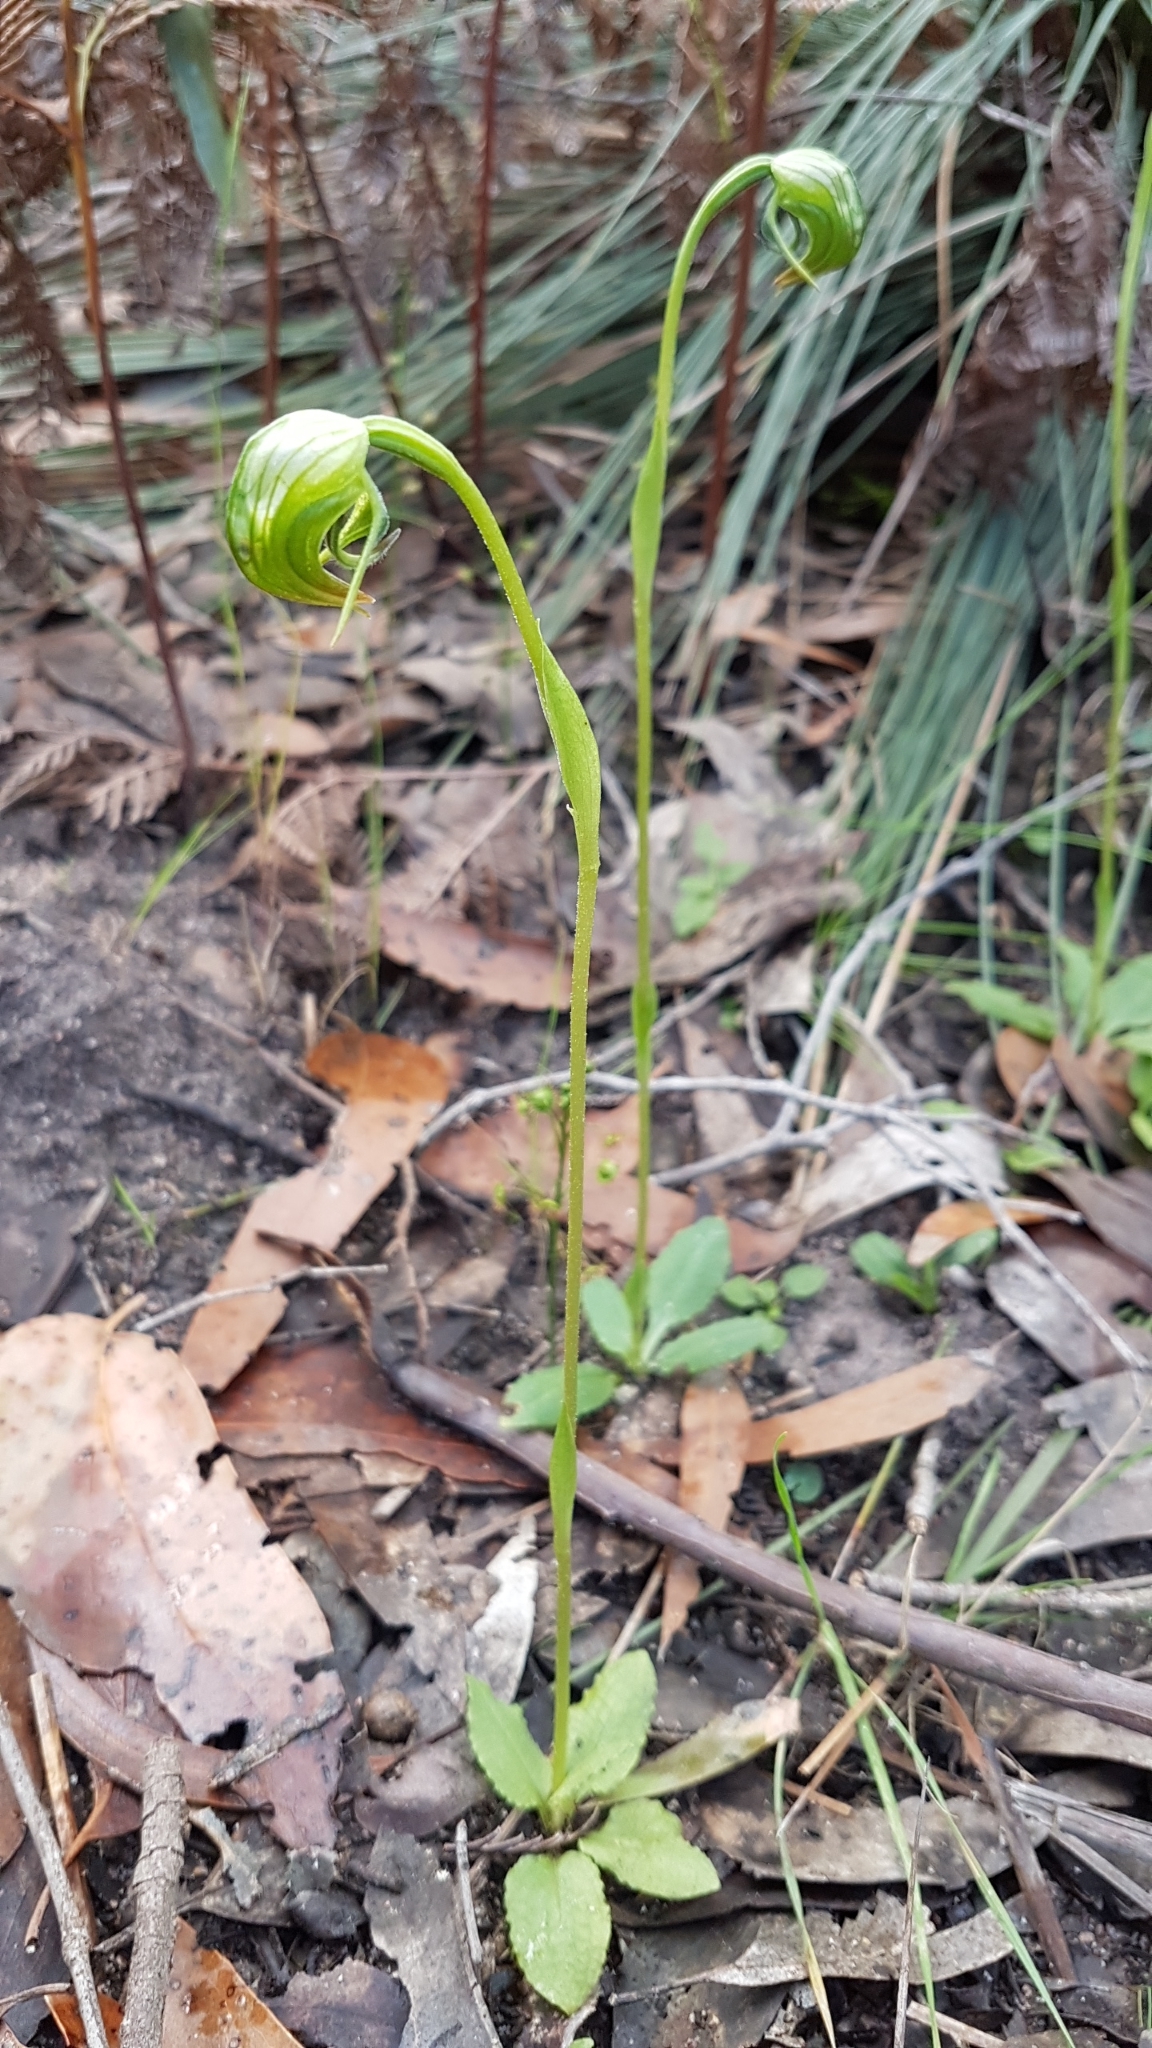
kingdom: Plantae
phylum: Tracheophyta
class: Liliopsida
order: Asparagales
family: Orchidaceae
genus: Pterostylis
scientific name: Pterostylis nutans
